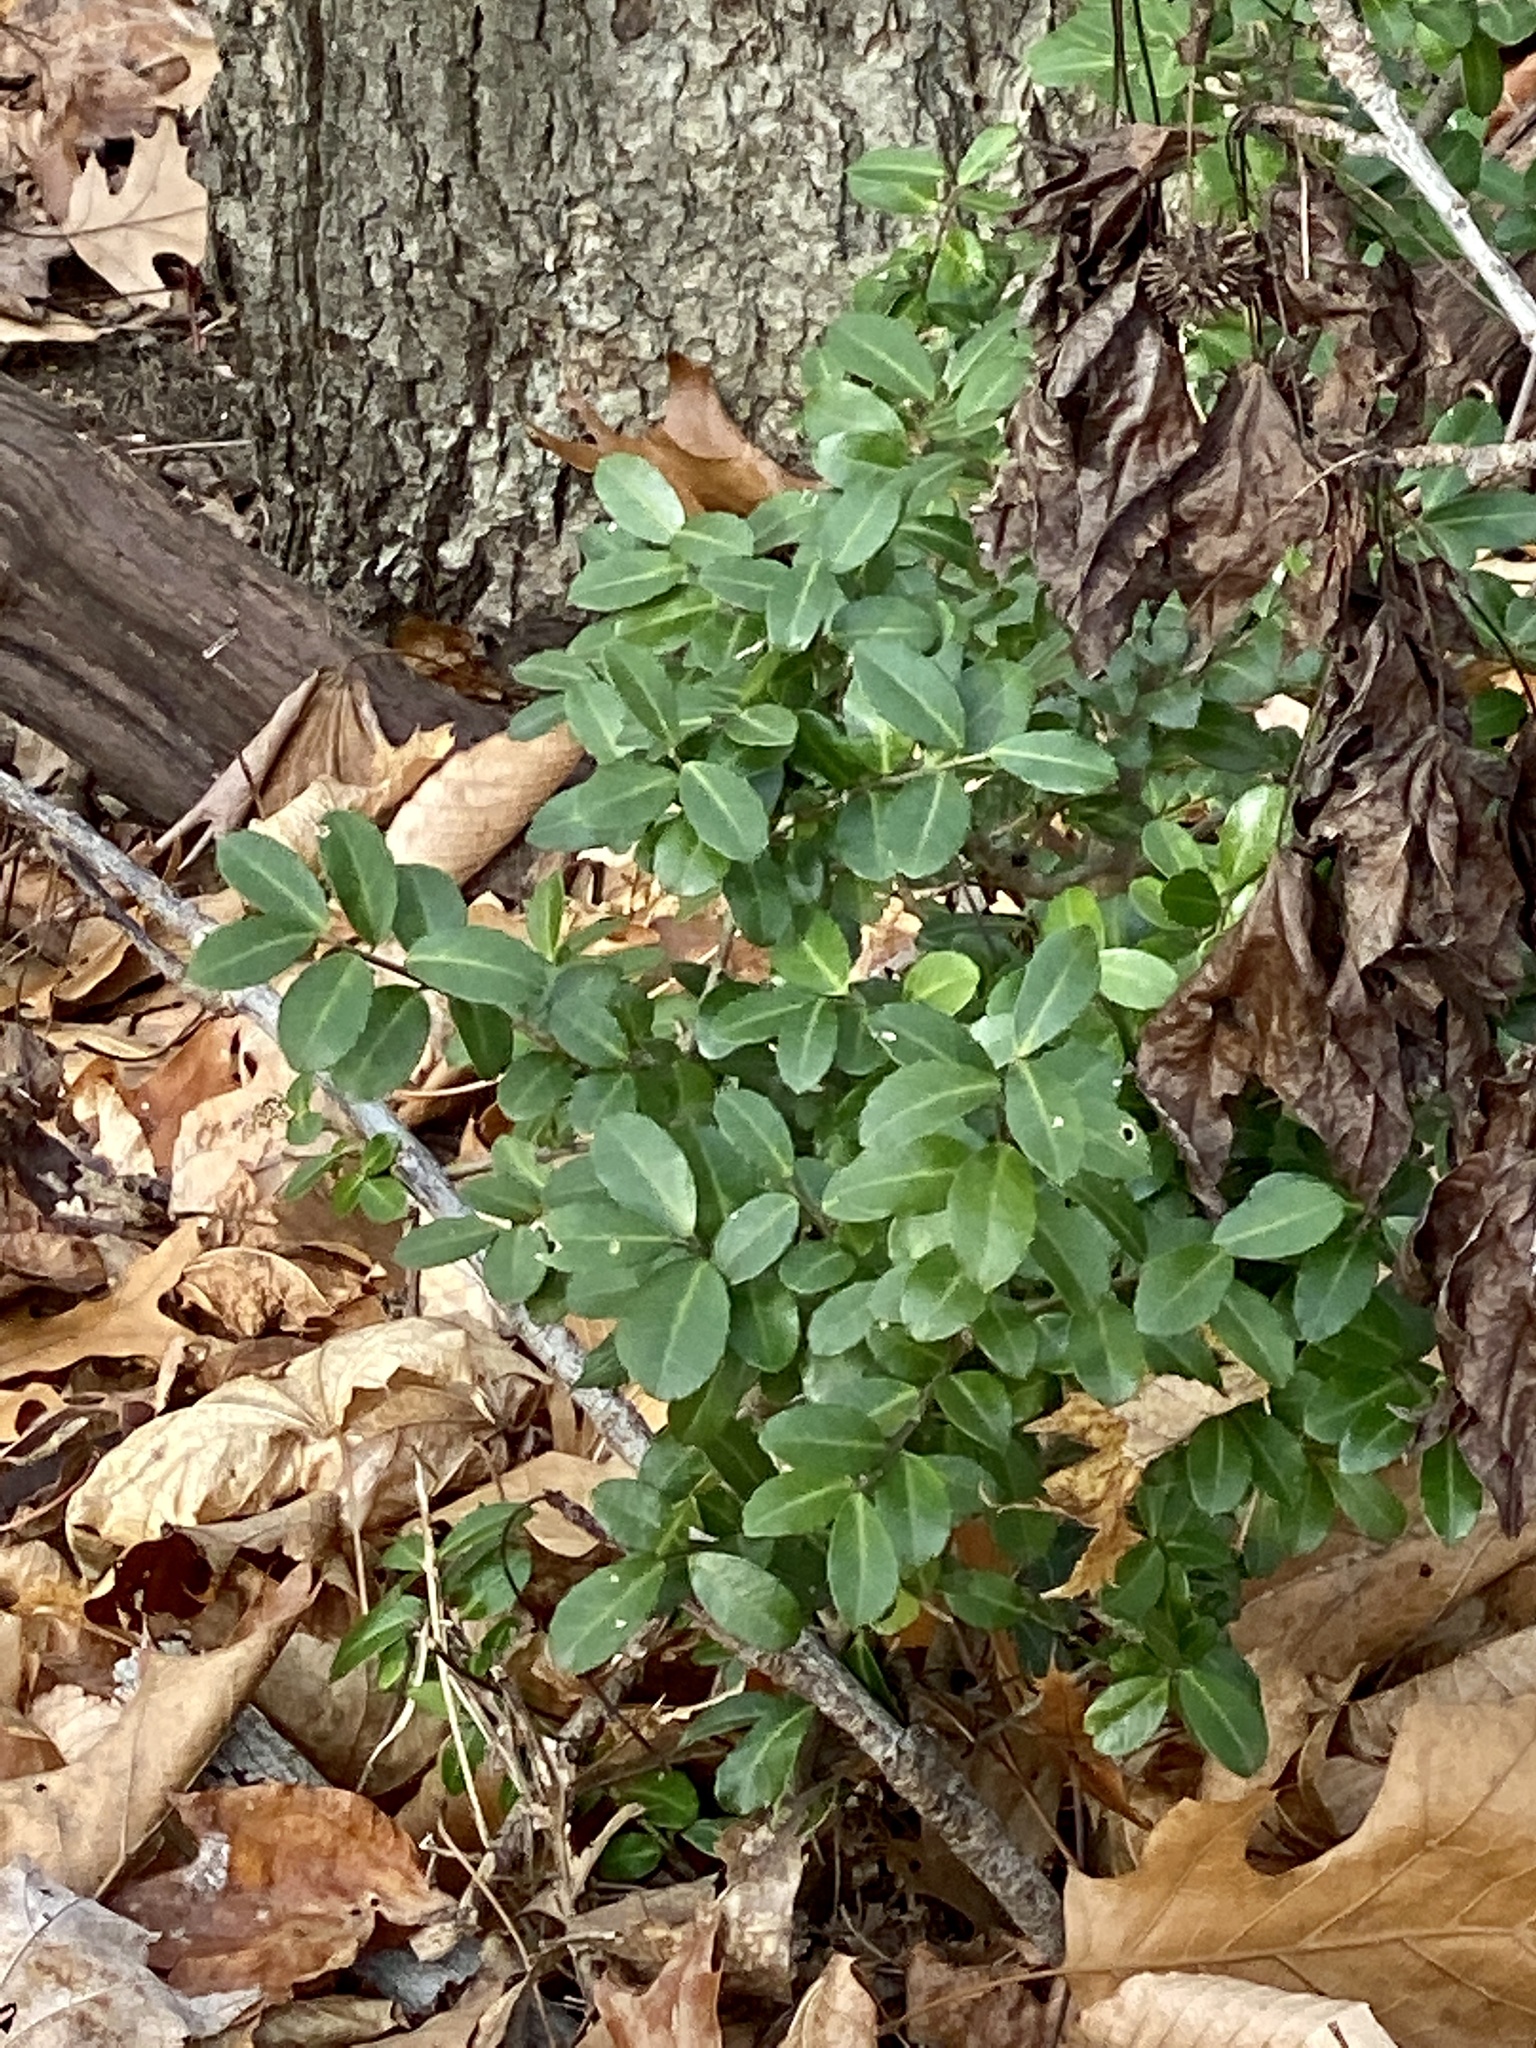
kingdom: Plantae
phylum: Tracheophyta
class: Magnoliopsida
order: Aquifoliales
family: Aquifoliaceae
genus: Ilex
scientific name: Ilex crenata
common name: Japanese holly
